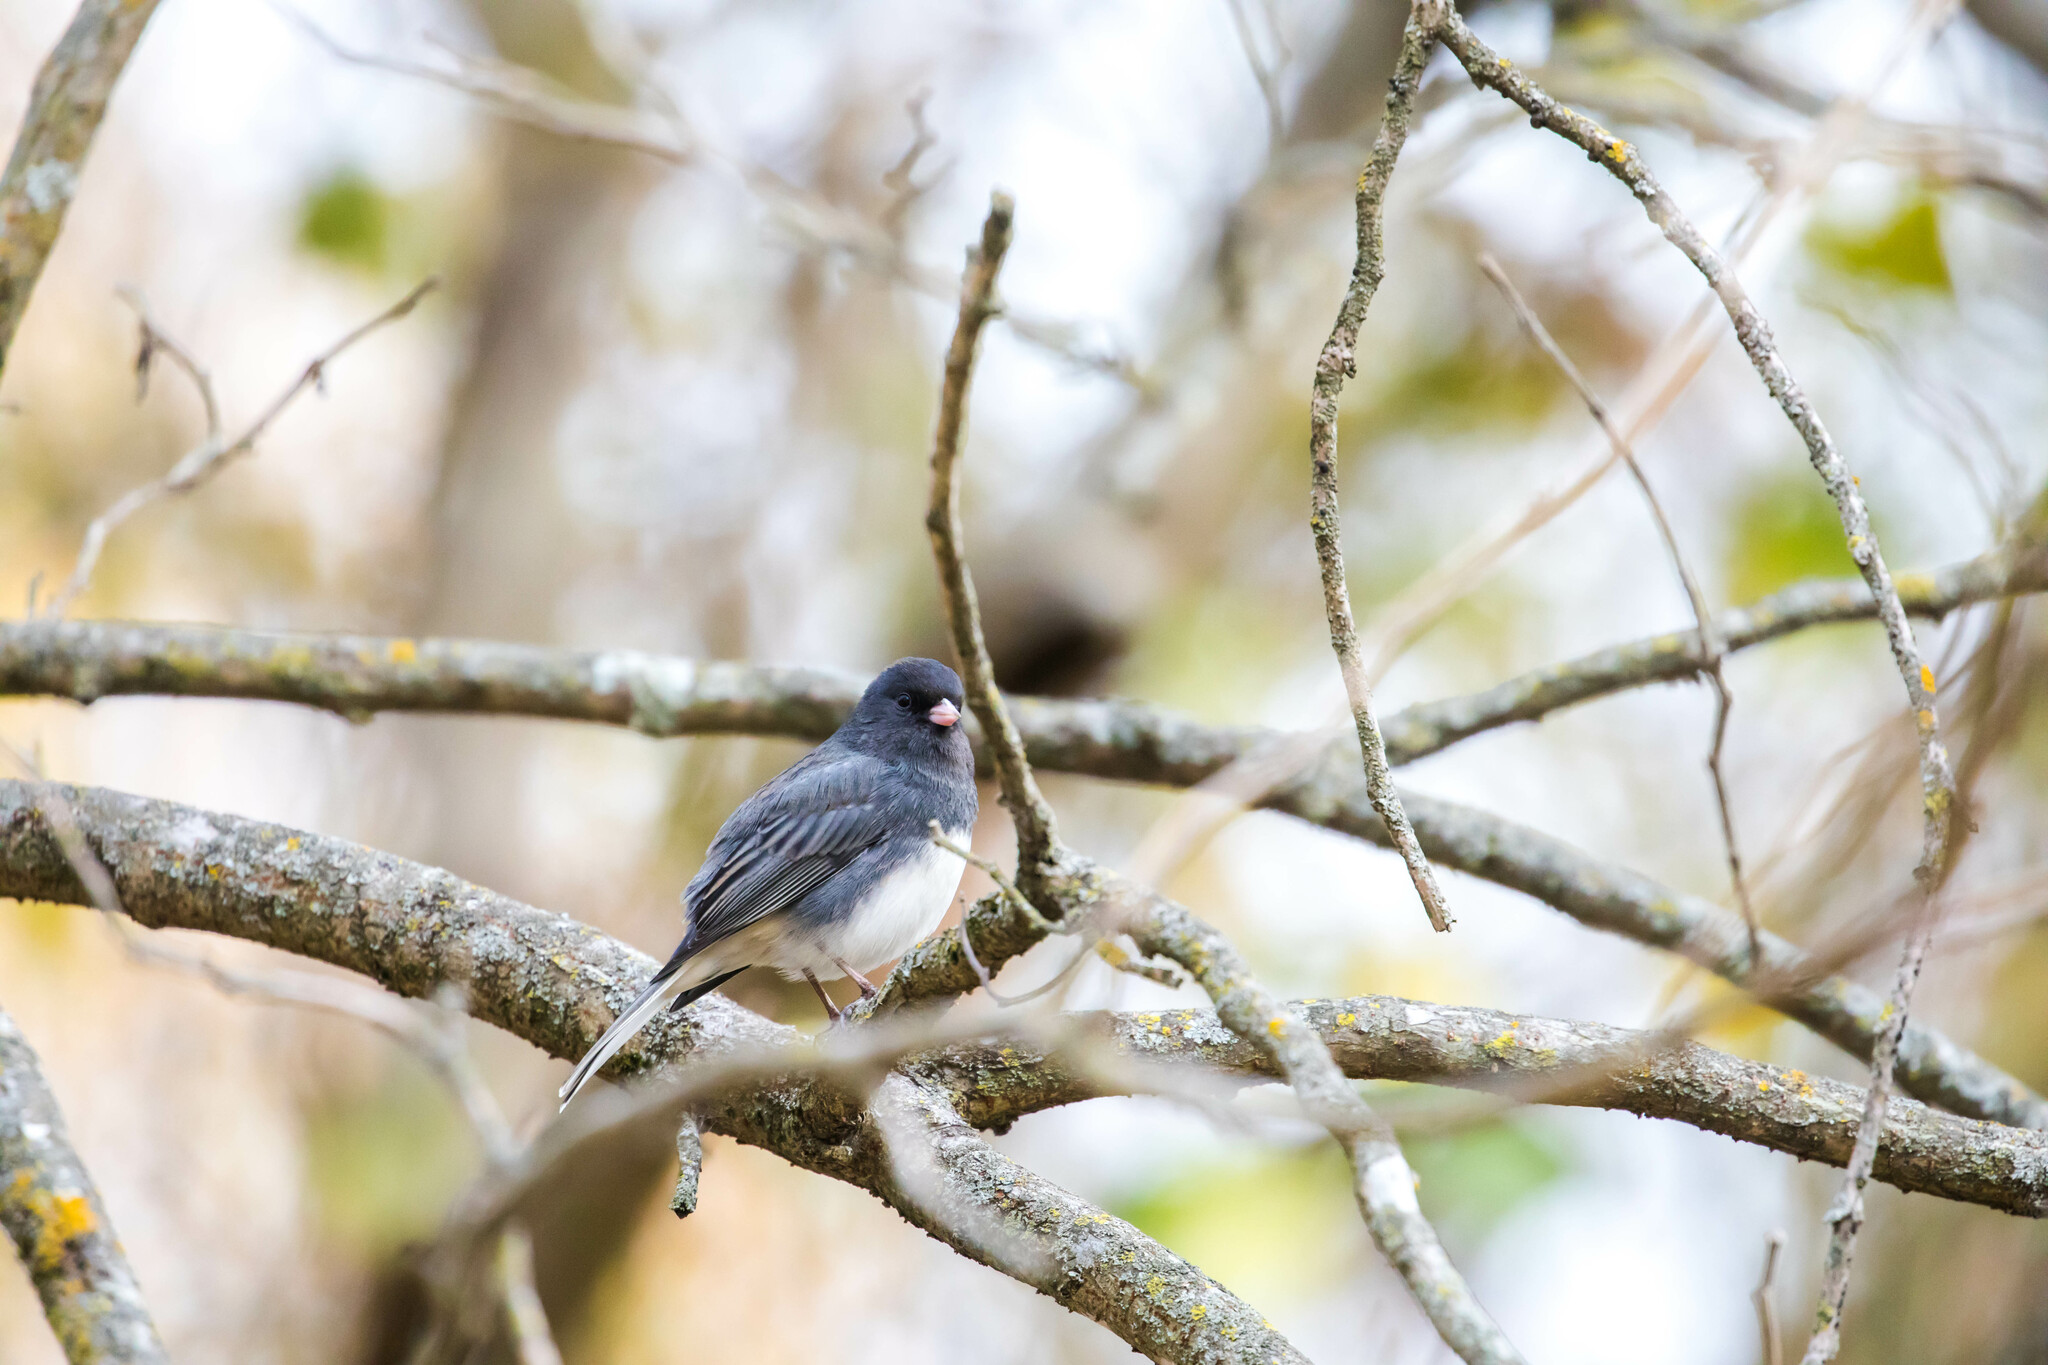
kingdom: Animalia
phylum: Chordata
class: Aves
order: Passeriformes
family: Passerellidae
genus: Junco
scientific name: Junco hyemalis
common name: Dark-eyed junco
